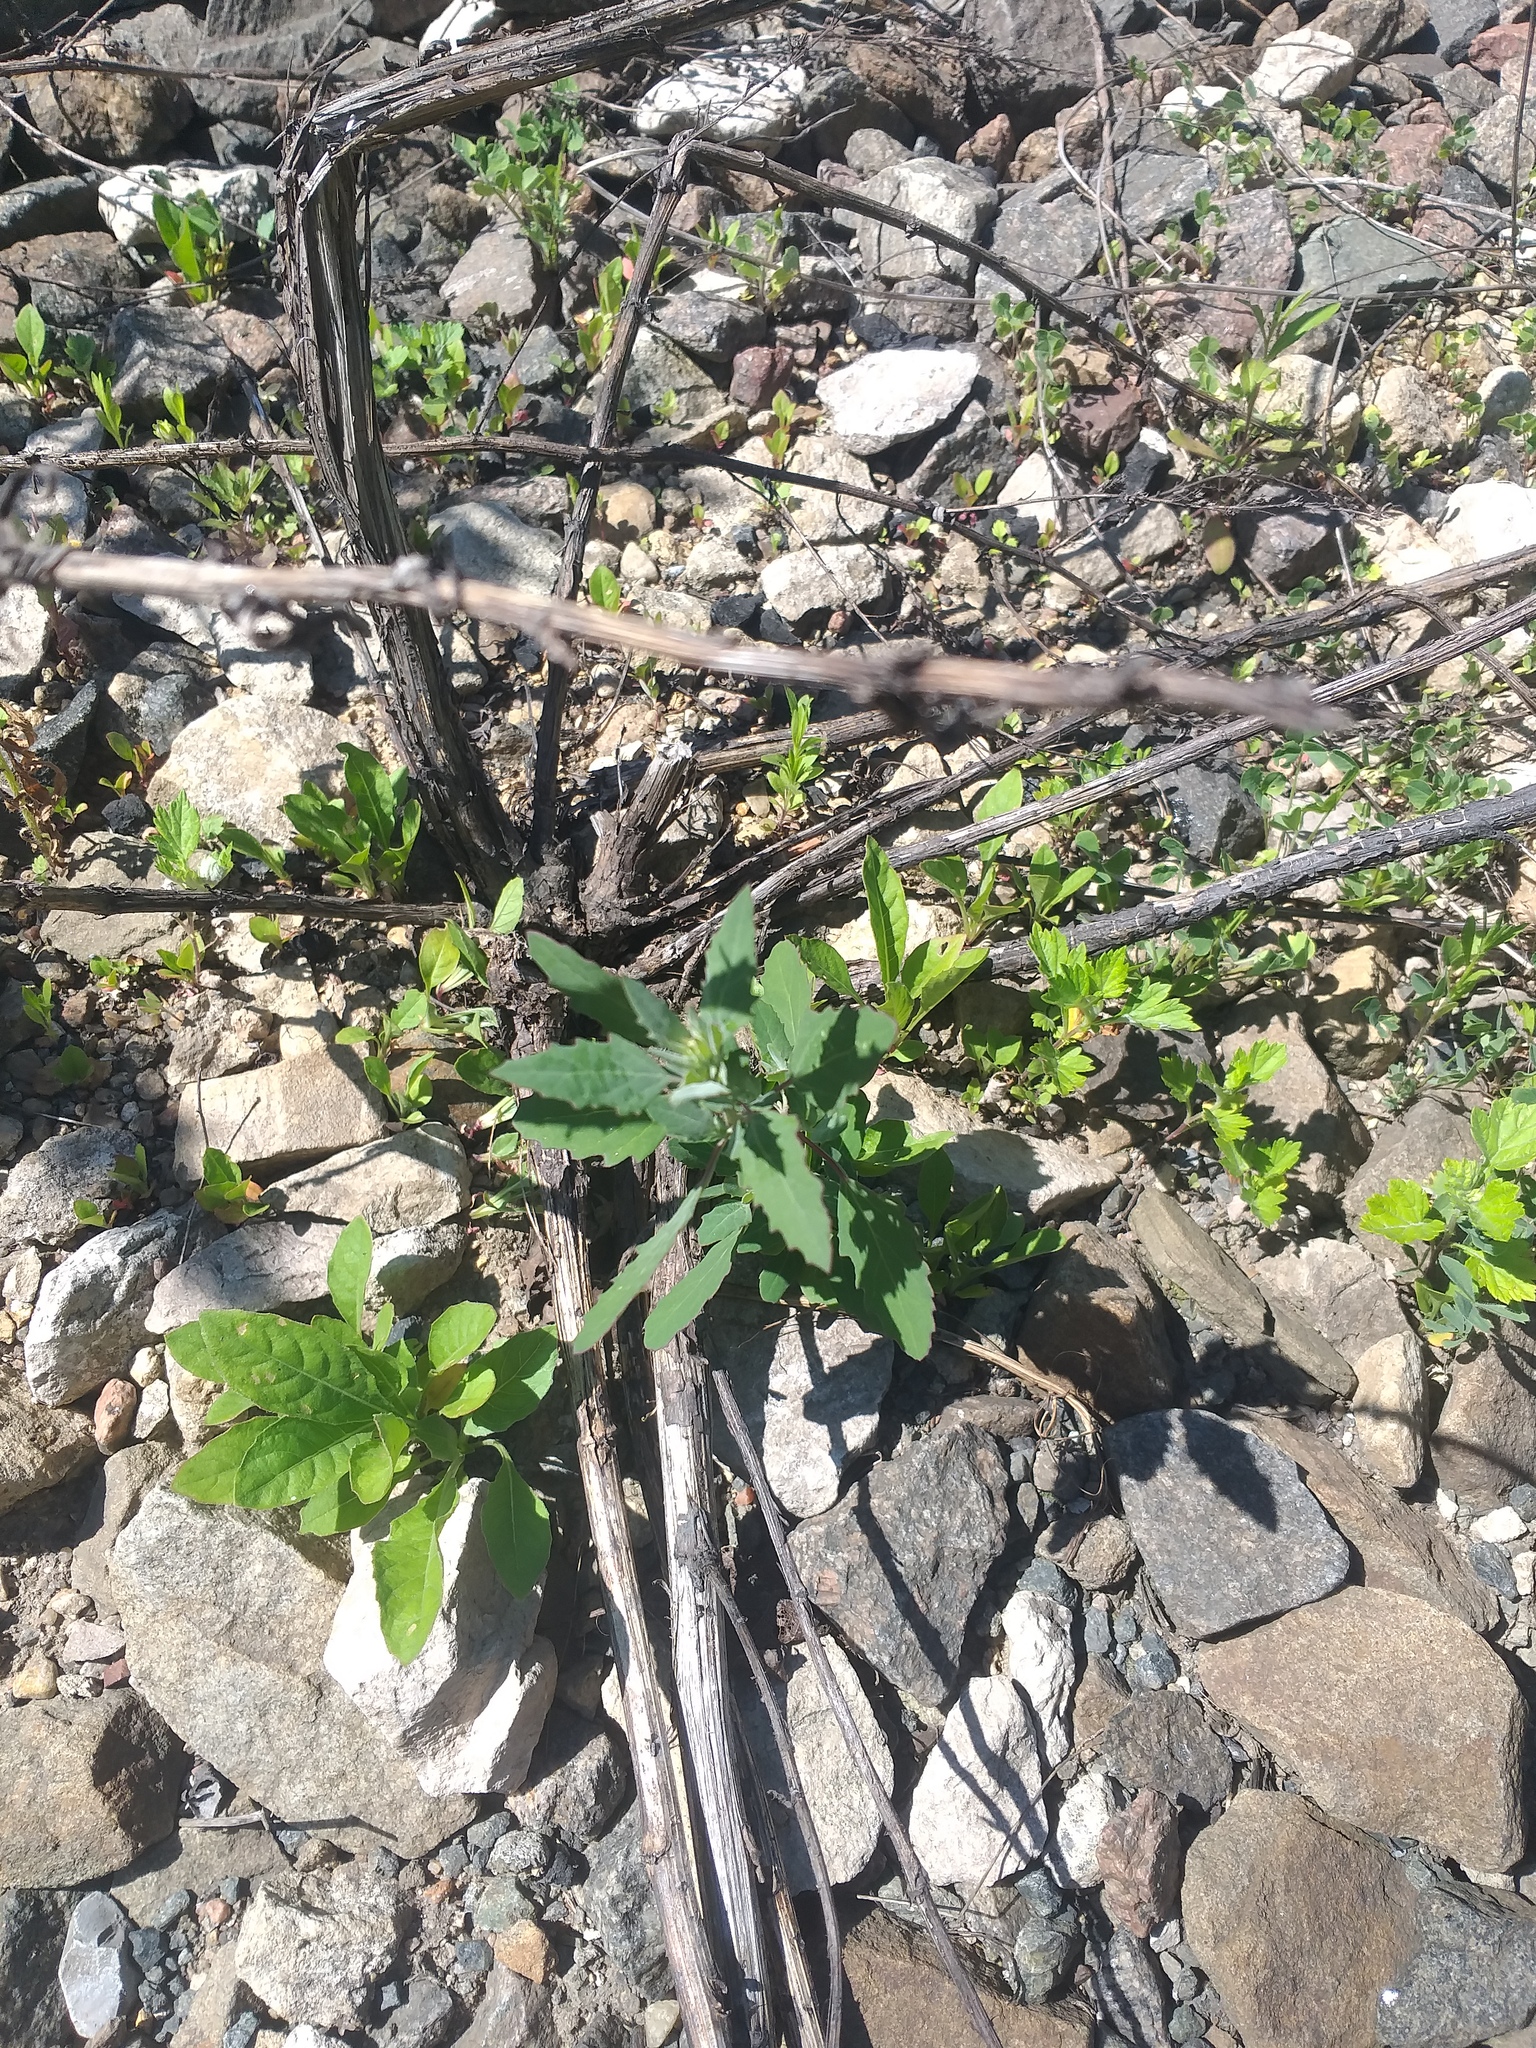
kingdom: Plantae
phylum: Tracheophyta
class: Magnoliopsida
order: Caryophyllales
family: Amaranthaceae
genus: Chenopodium
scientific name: Chenopodium album
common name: Fat-hen
